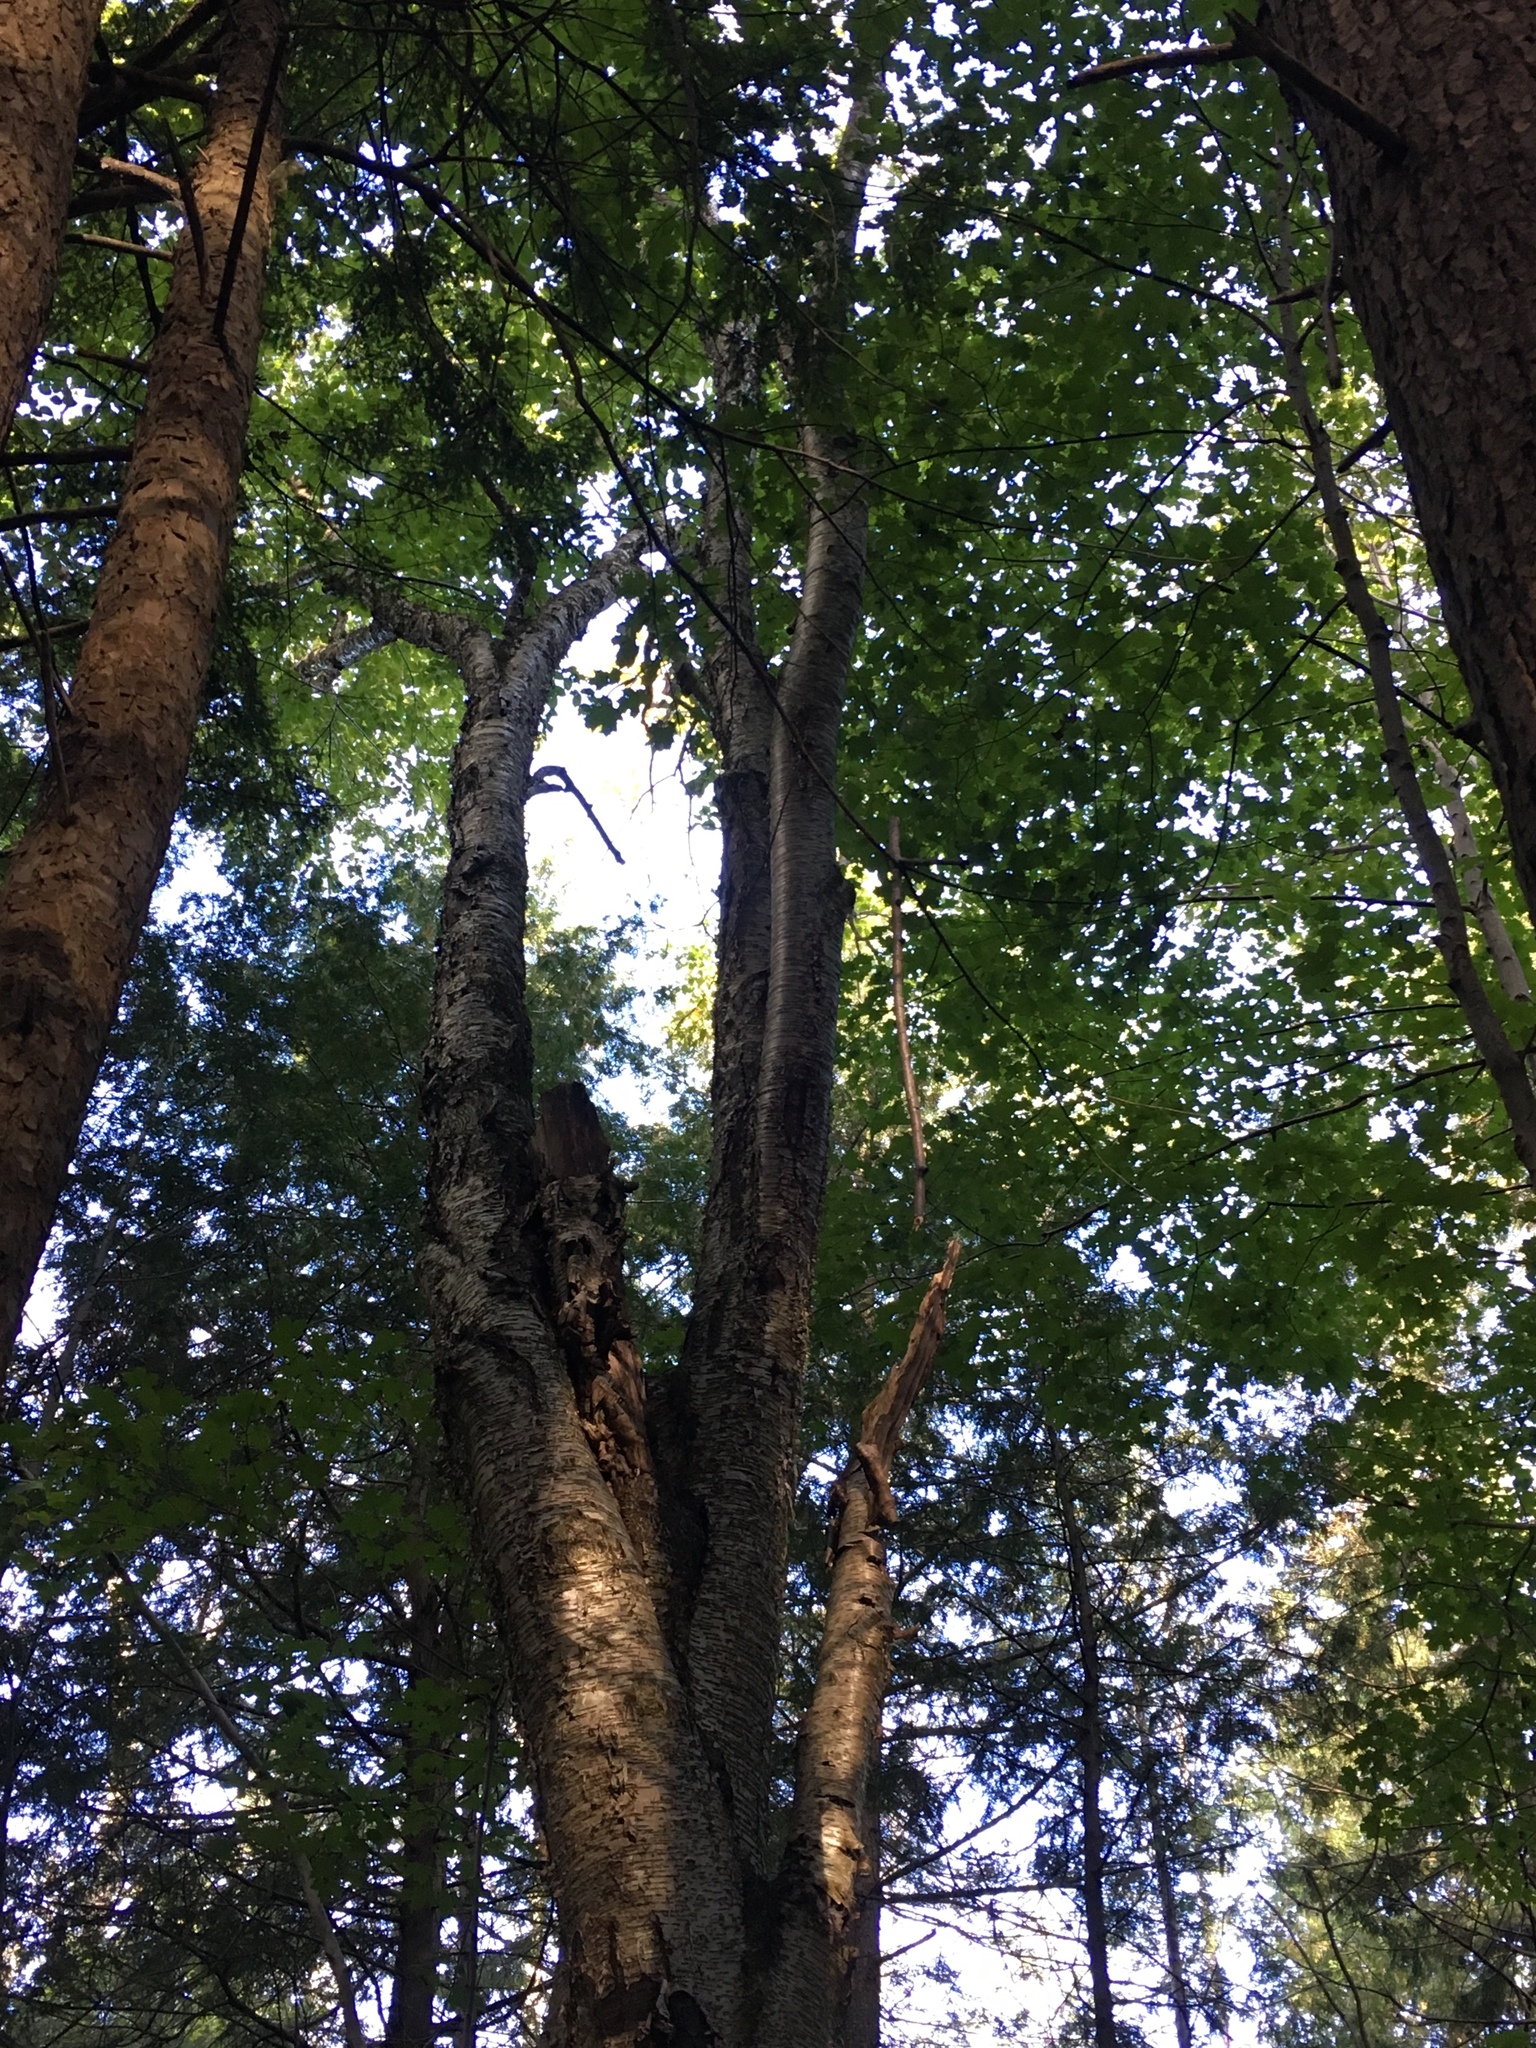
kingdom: Plantae
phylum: Tracheophyta
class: Magnoliopsida
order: Fagales
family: Betulaceae
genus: Betula
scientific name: Betula alleghaniensis
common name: Yellow birch
